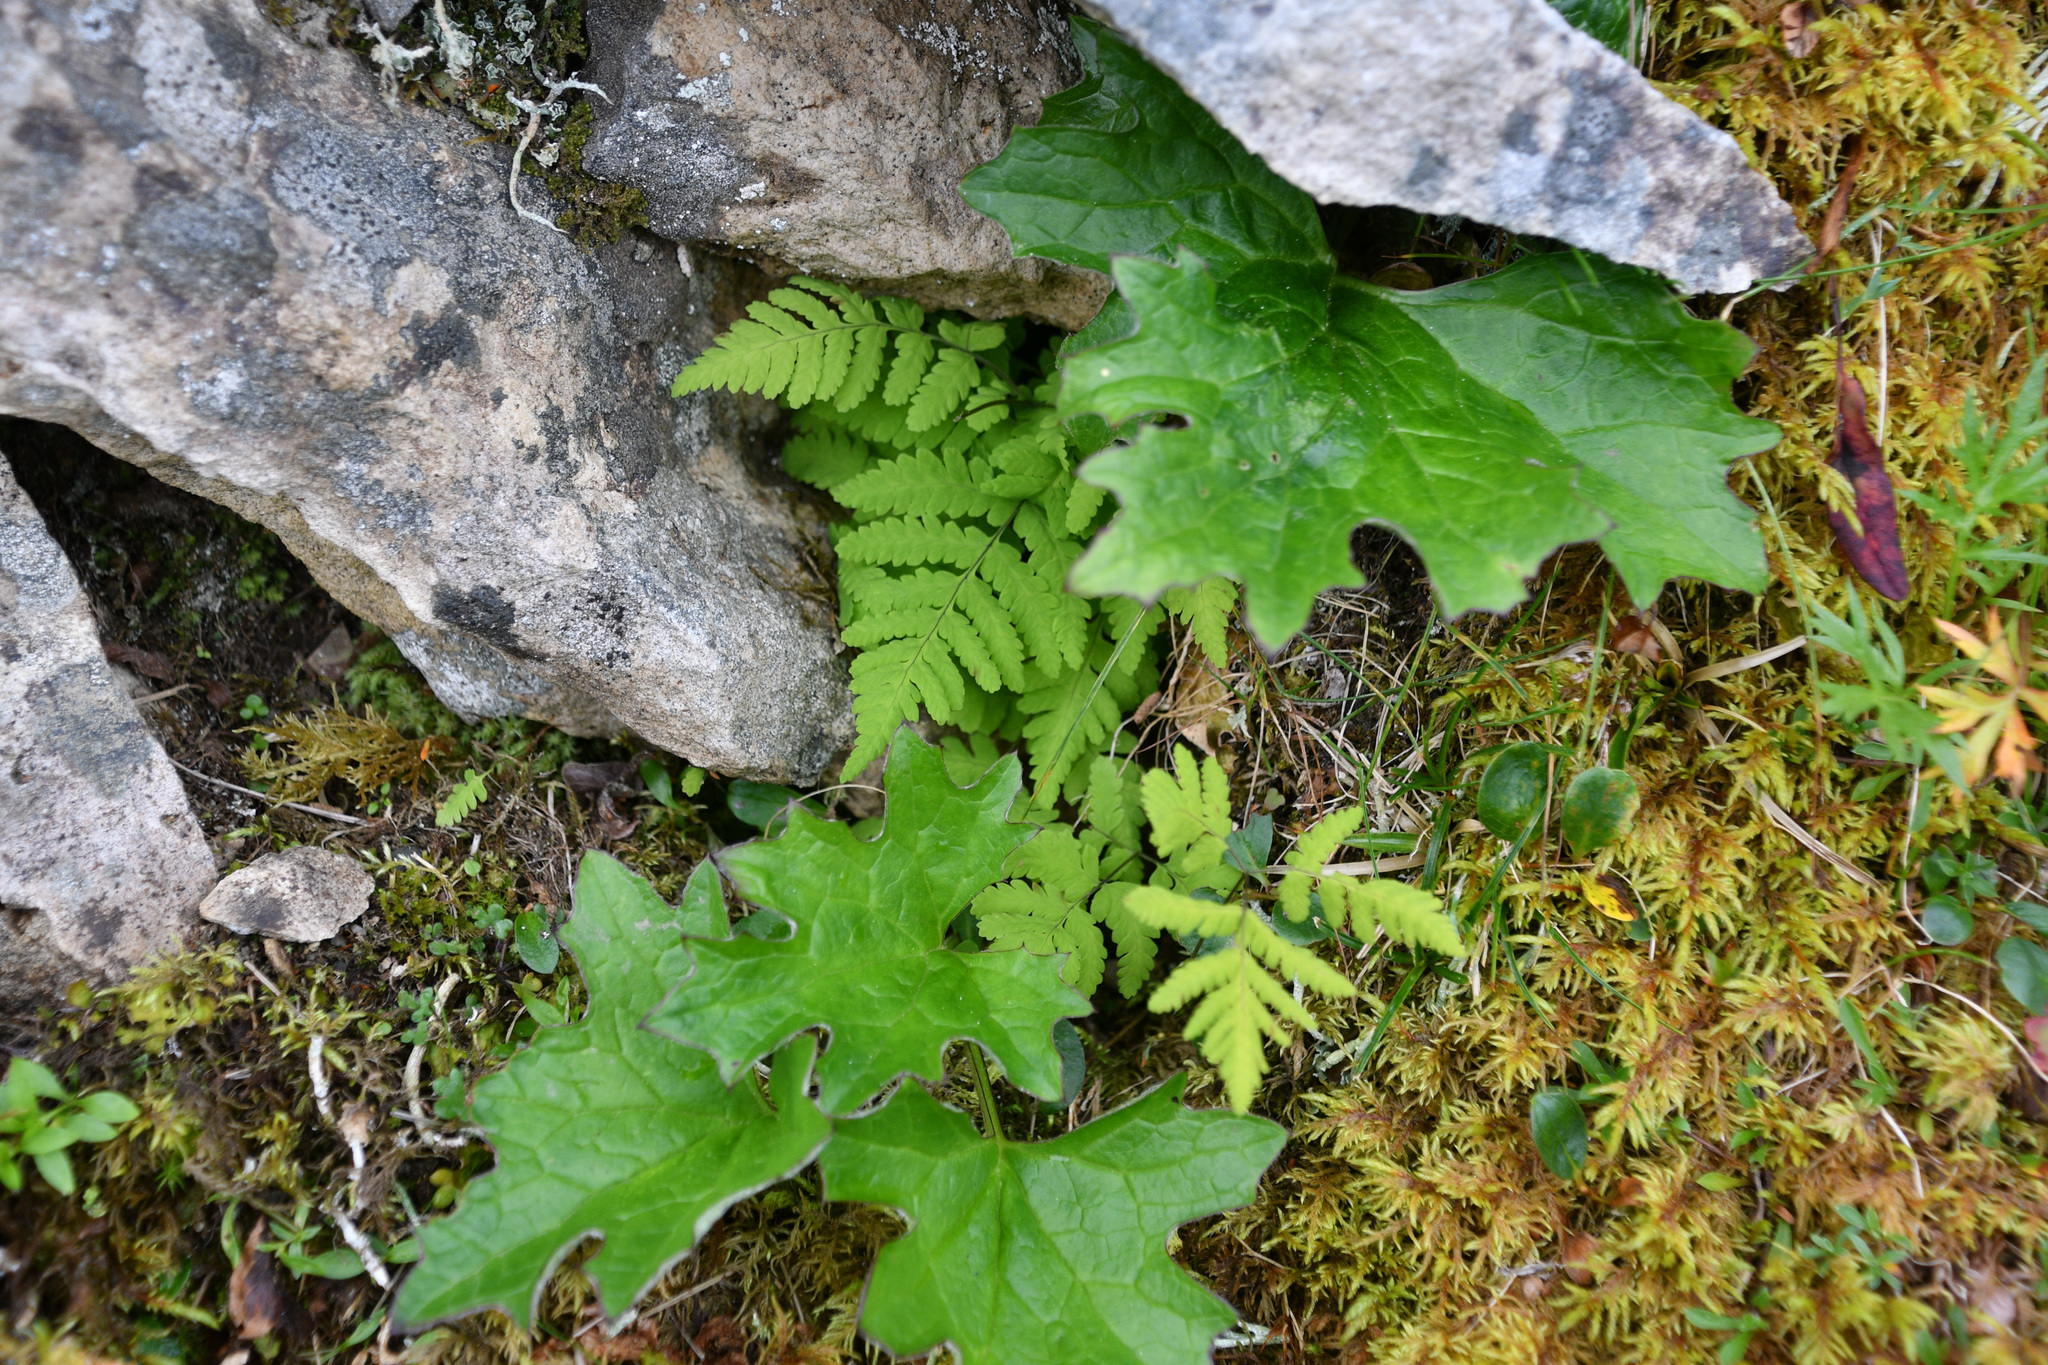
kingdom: Plantae
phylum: Tracheophyta
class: Magnoliopsida
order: Asterales
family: Asteraceae
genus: Petasites
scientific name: Petasites frigidus
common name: Arctic butterbur
